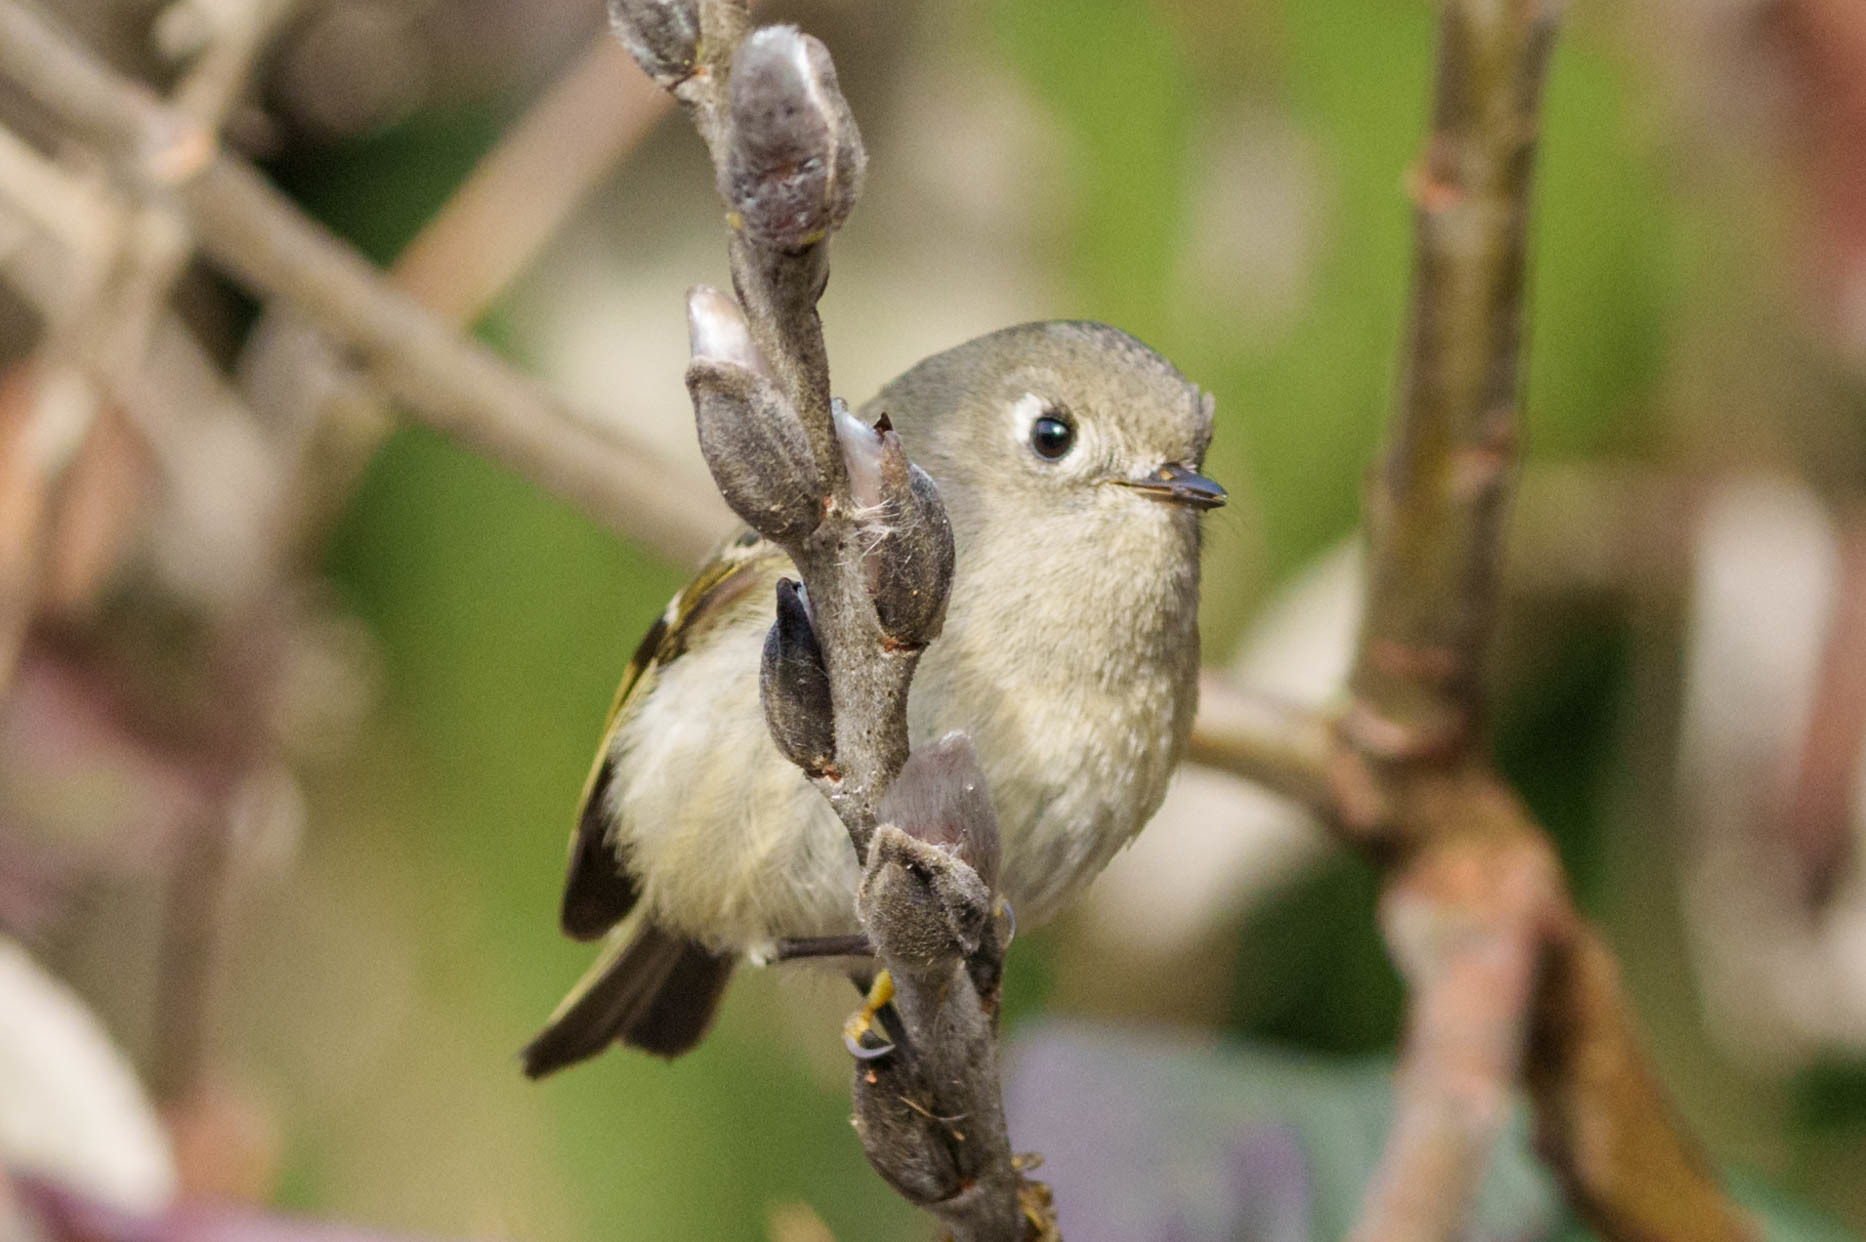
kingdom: Animalia
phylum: Chordata
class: Aves
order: Passeriformes
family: Regulidae
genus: Regulus
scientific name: Regulus calendula
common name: Ruby-crowned kinglet
